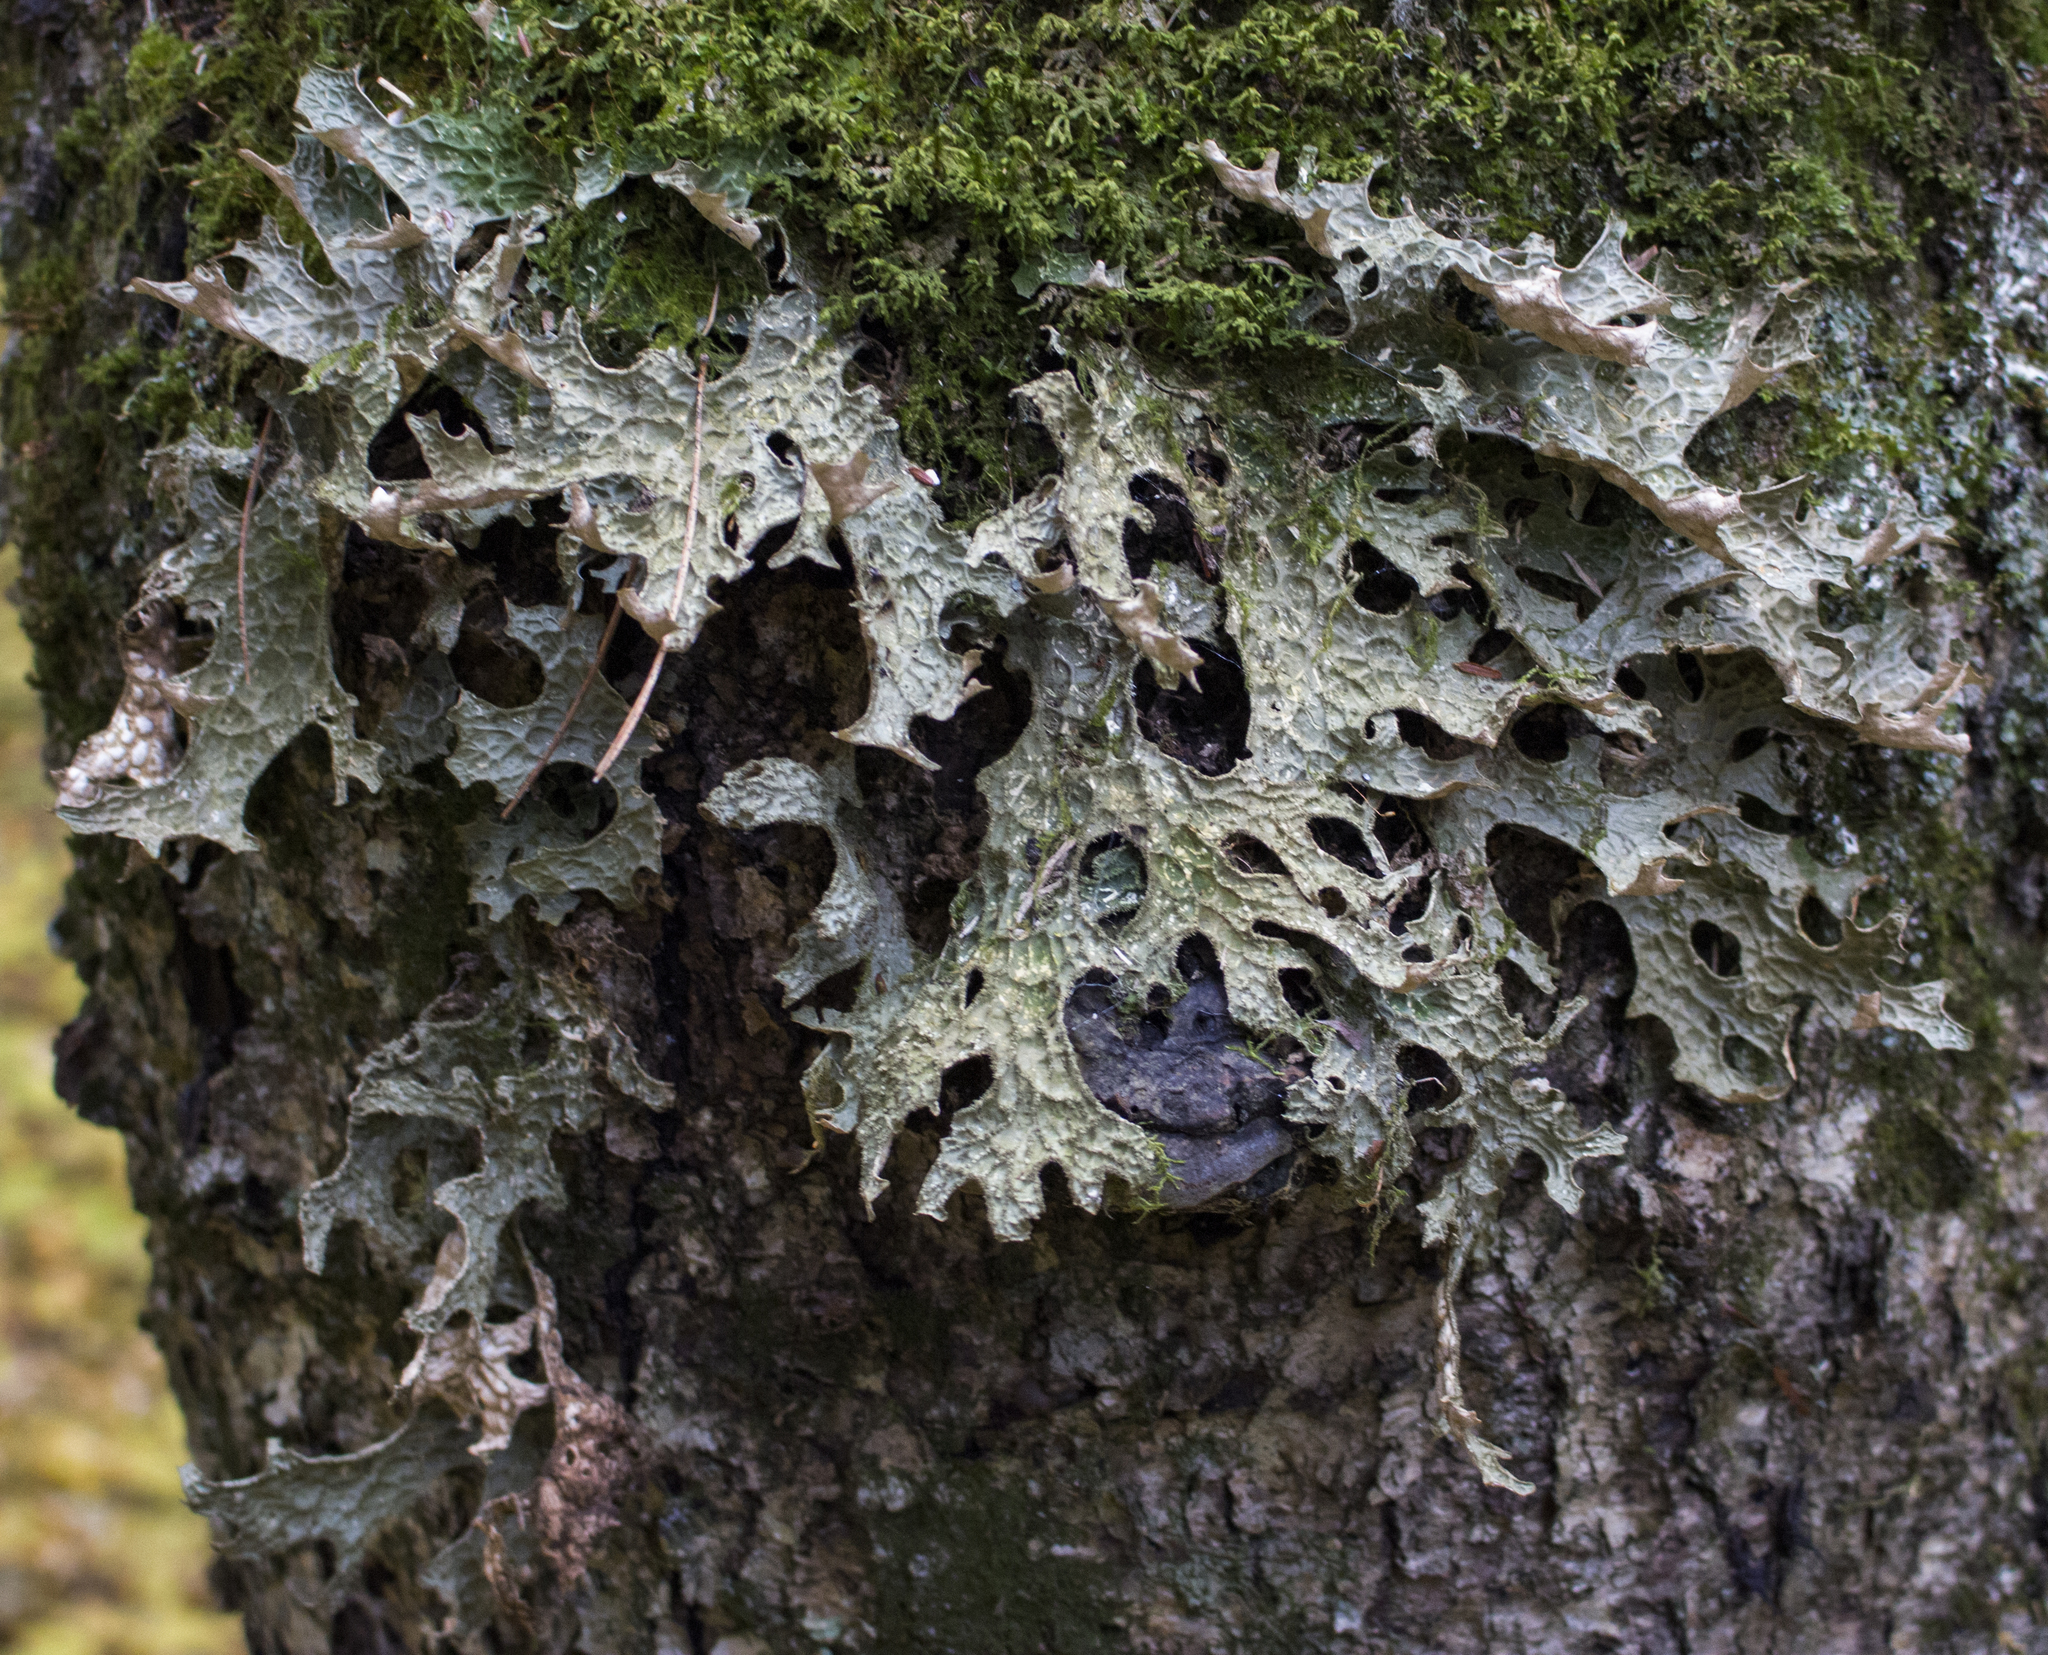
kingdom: Fungi
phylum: Ascomycota
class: Lecanoromycetes
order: Peltigerales
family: Lobariaceae
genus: Lobaria
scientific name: Lobaria pulmonaria
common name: Lungwort
